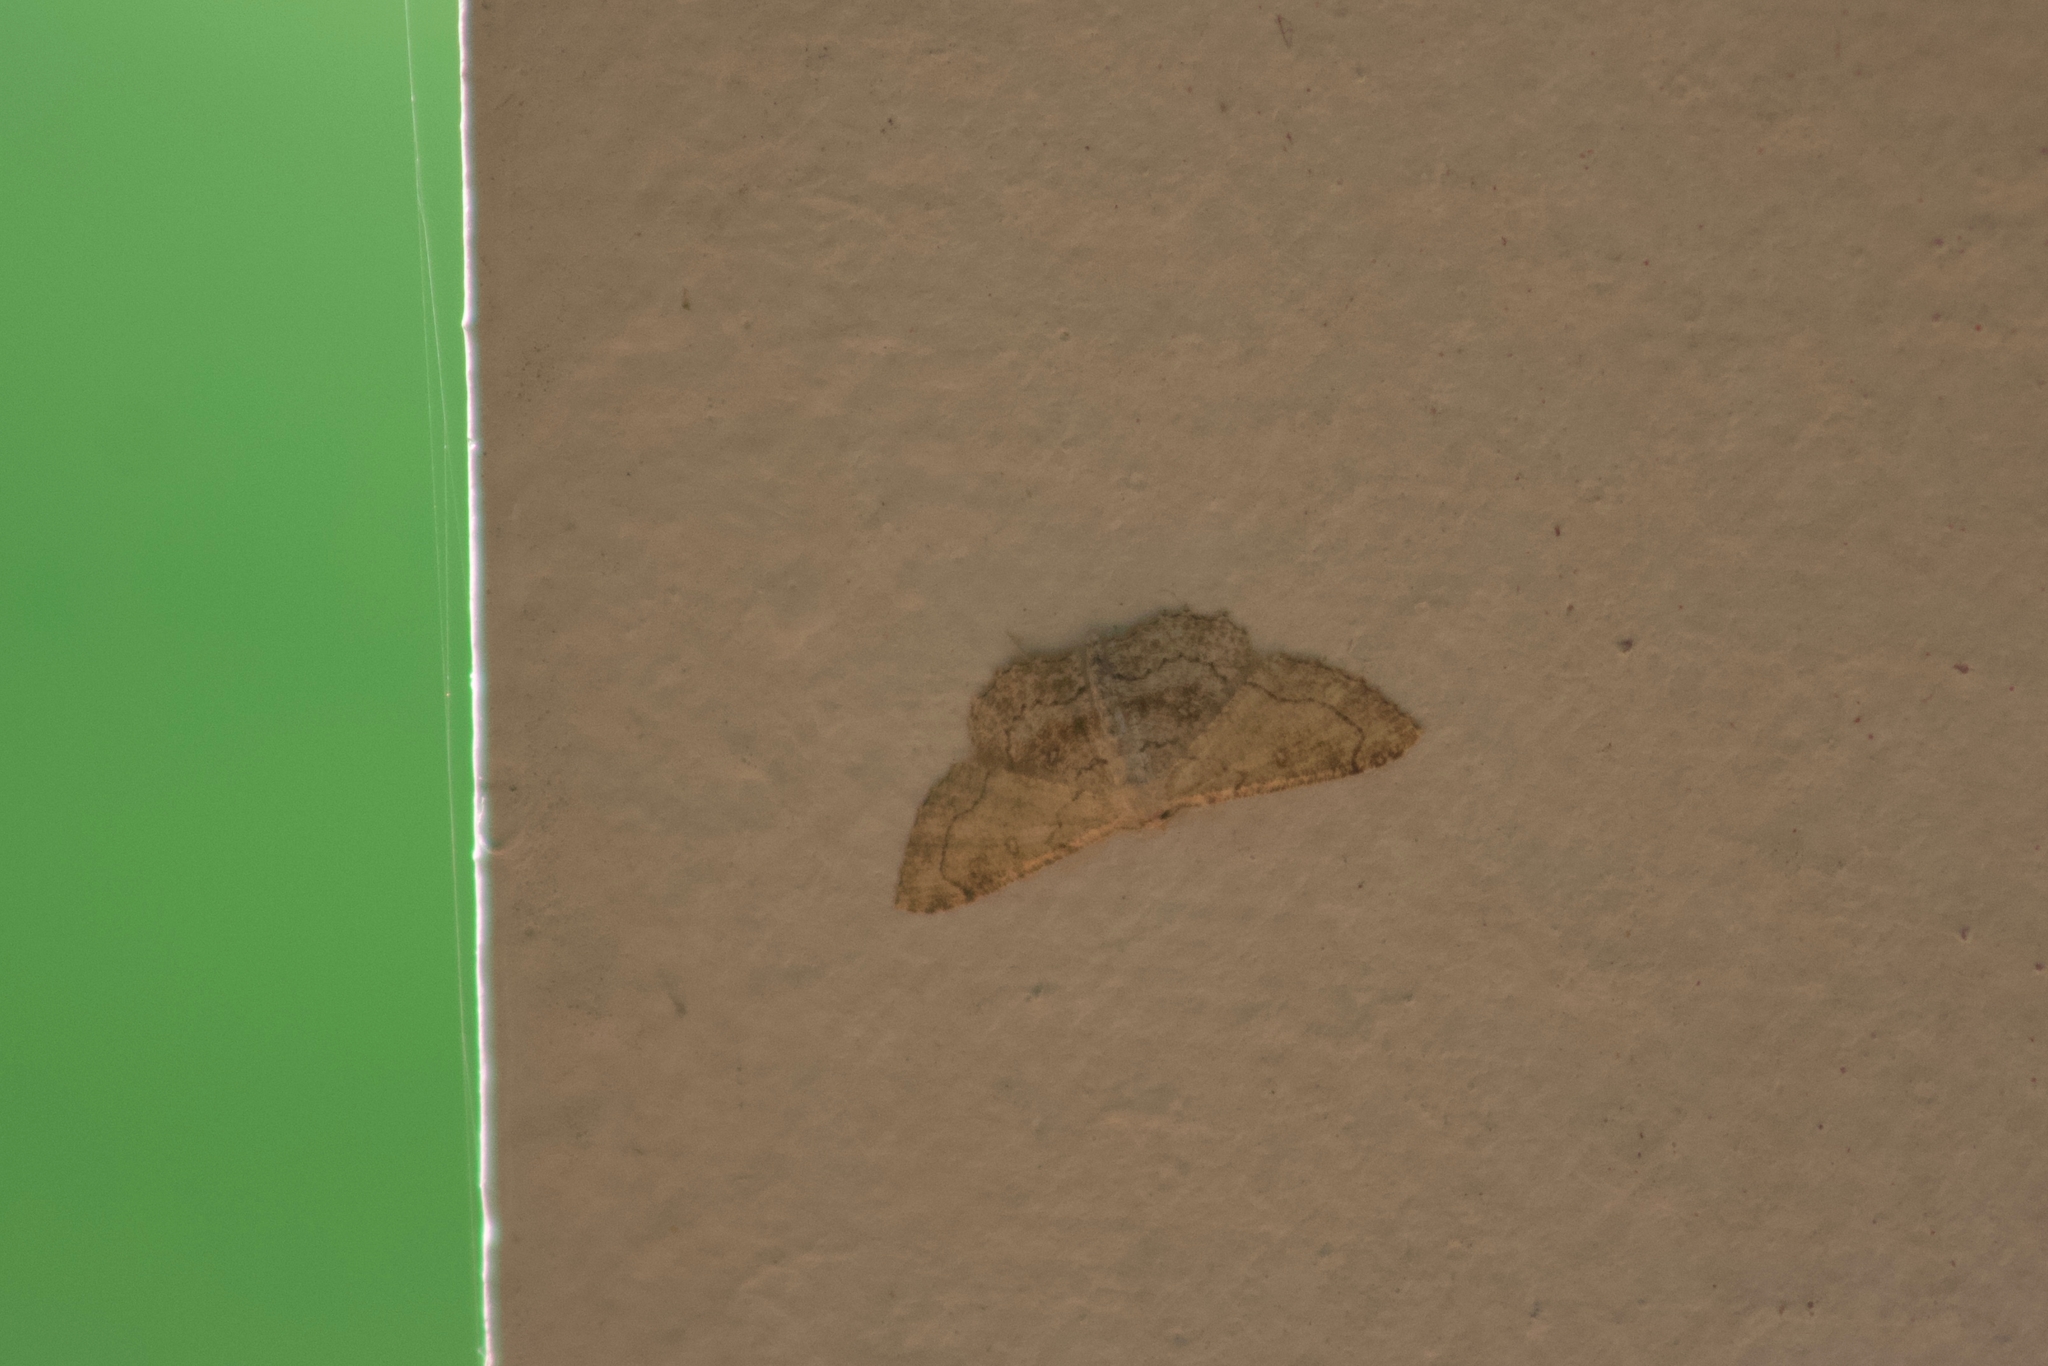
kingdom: Animalia
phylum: Arthropoda
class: Insecta
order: Lepidoptera
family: Geometridae
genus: Cyclophora
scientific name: Cyclophora nanaria
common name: Cankerworm
